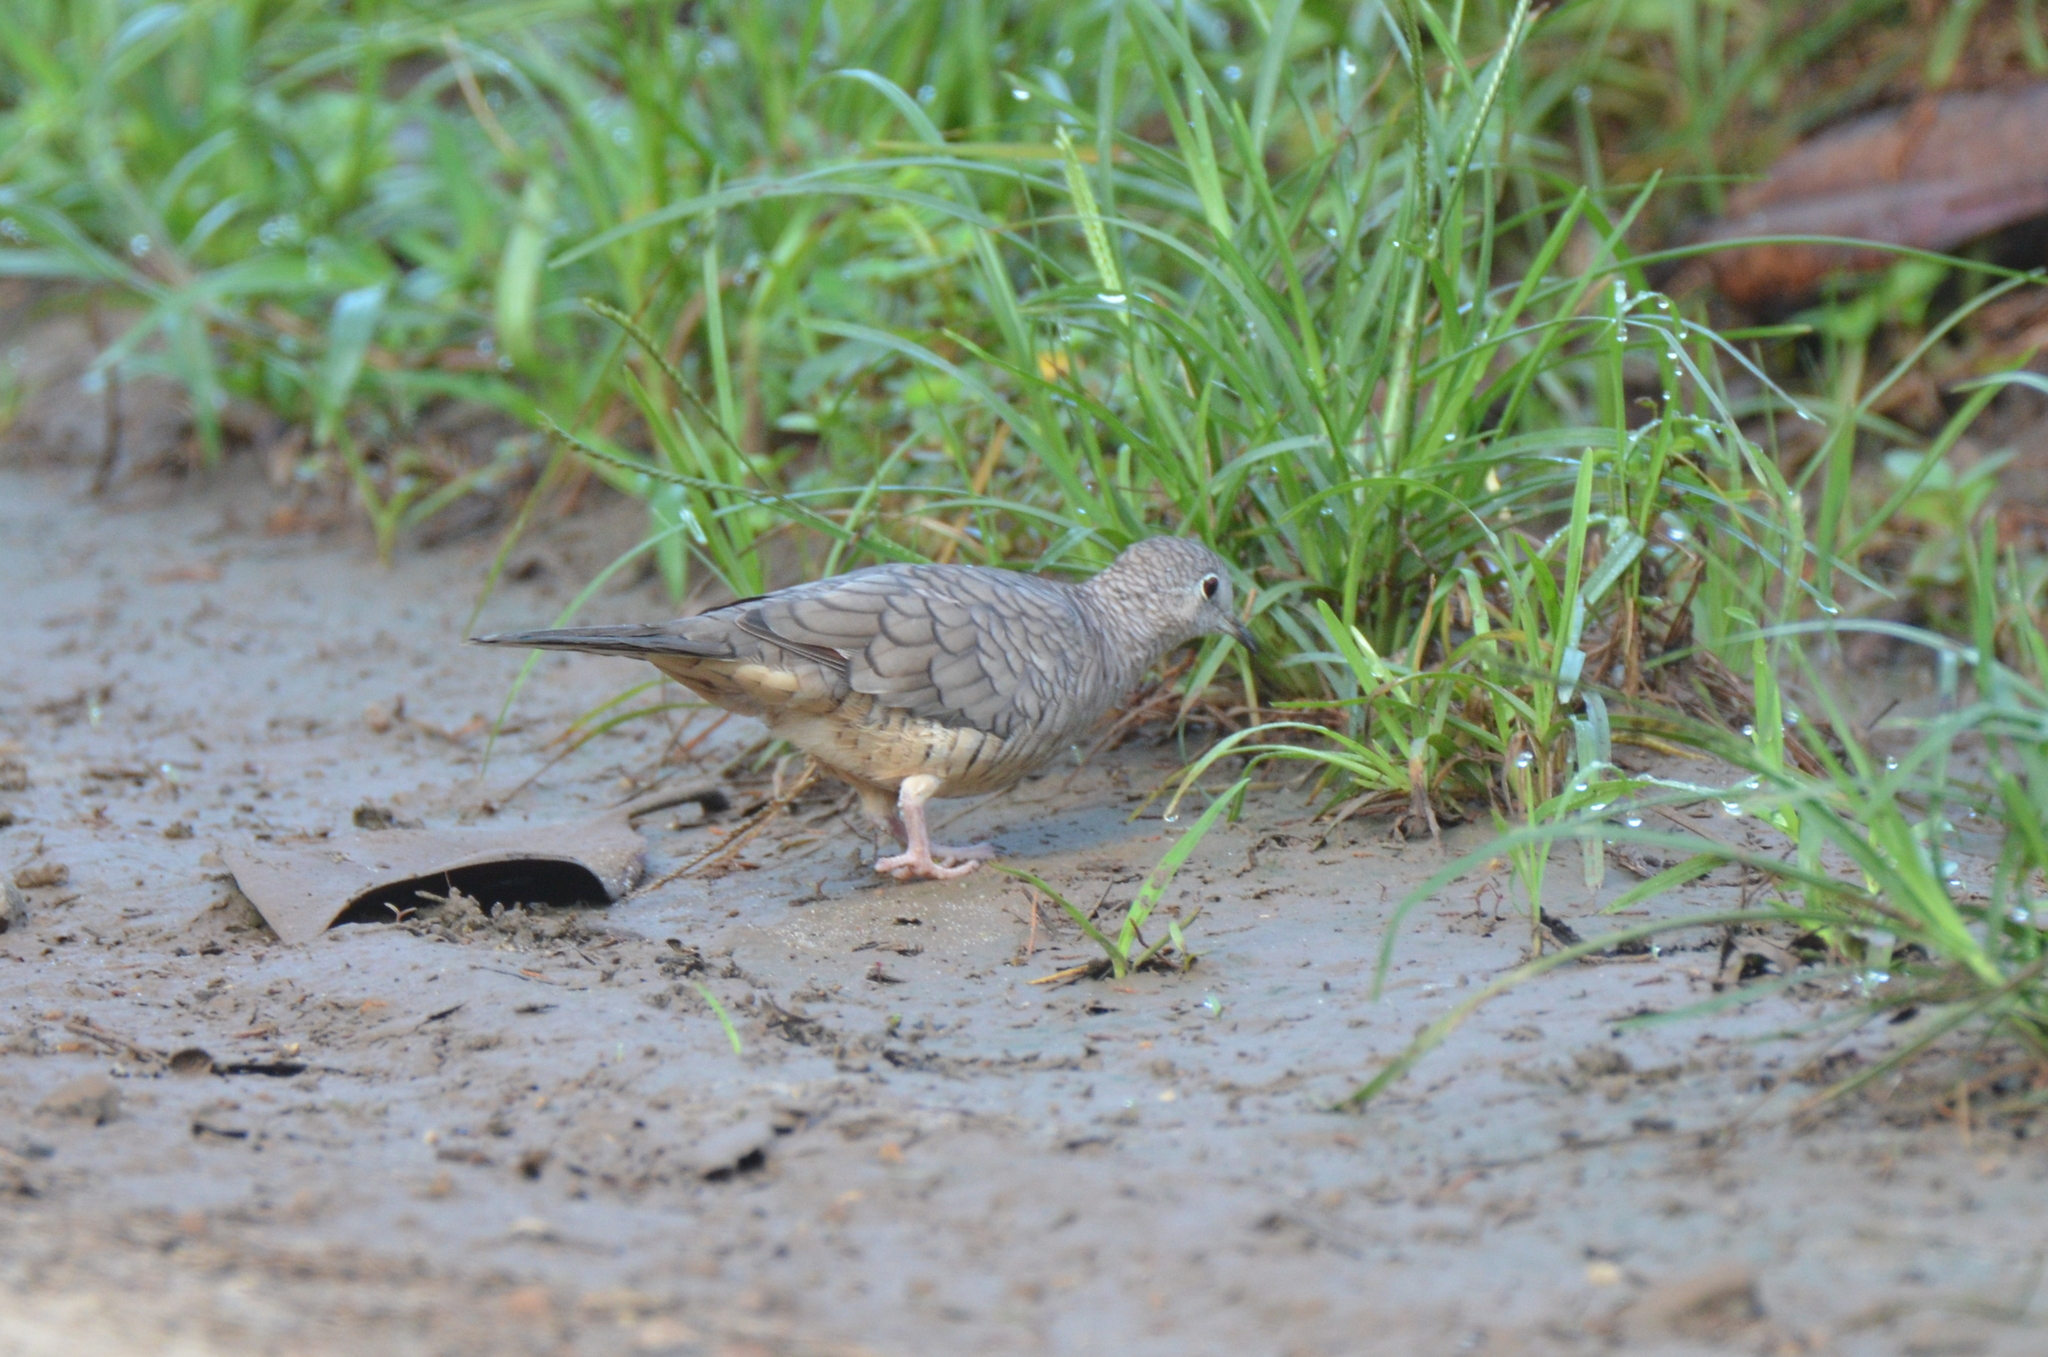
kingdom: Animalia
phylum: Chordata
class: Aves
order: Columbiformes
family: Columbidae
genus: Columbina
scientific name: Columbina inca
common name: Inca dove
